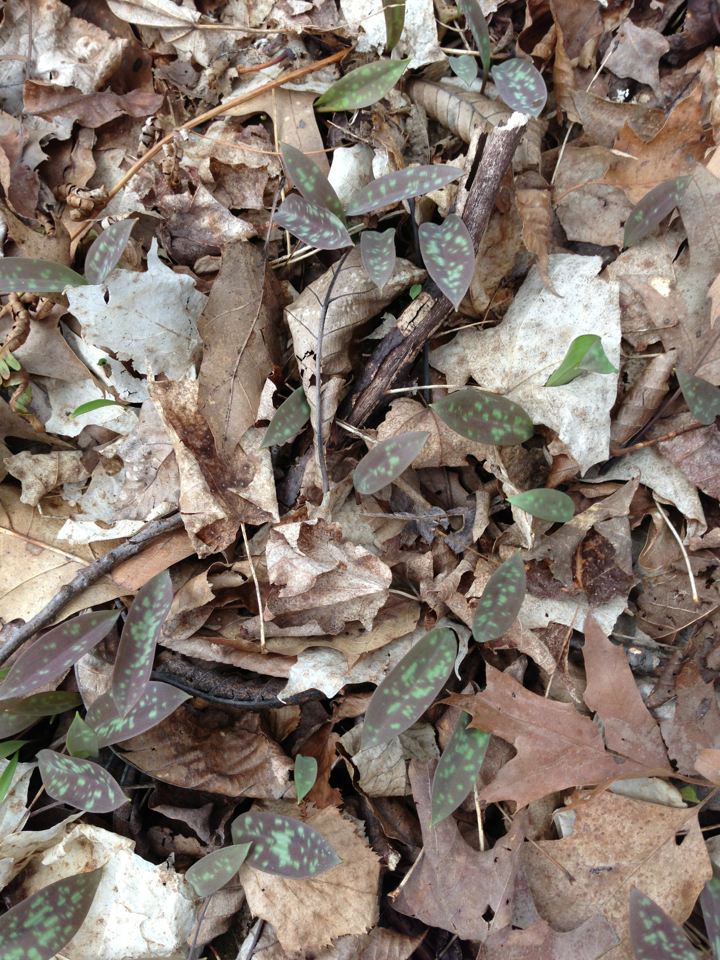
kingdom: Plantae
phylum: Tracheophyta
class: Liliopsida
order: Liliales
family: Liliaceae
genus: Erythronium
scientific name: Erythronium americanum
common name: Yellow adder's-tongue
